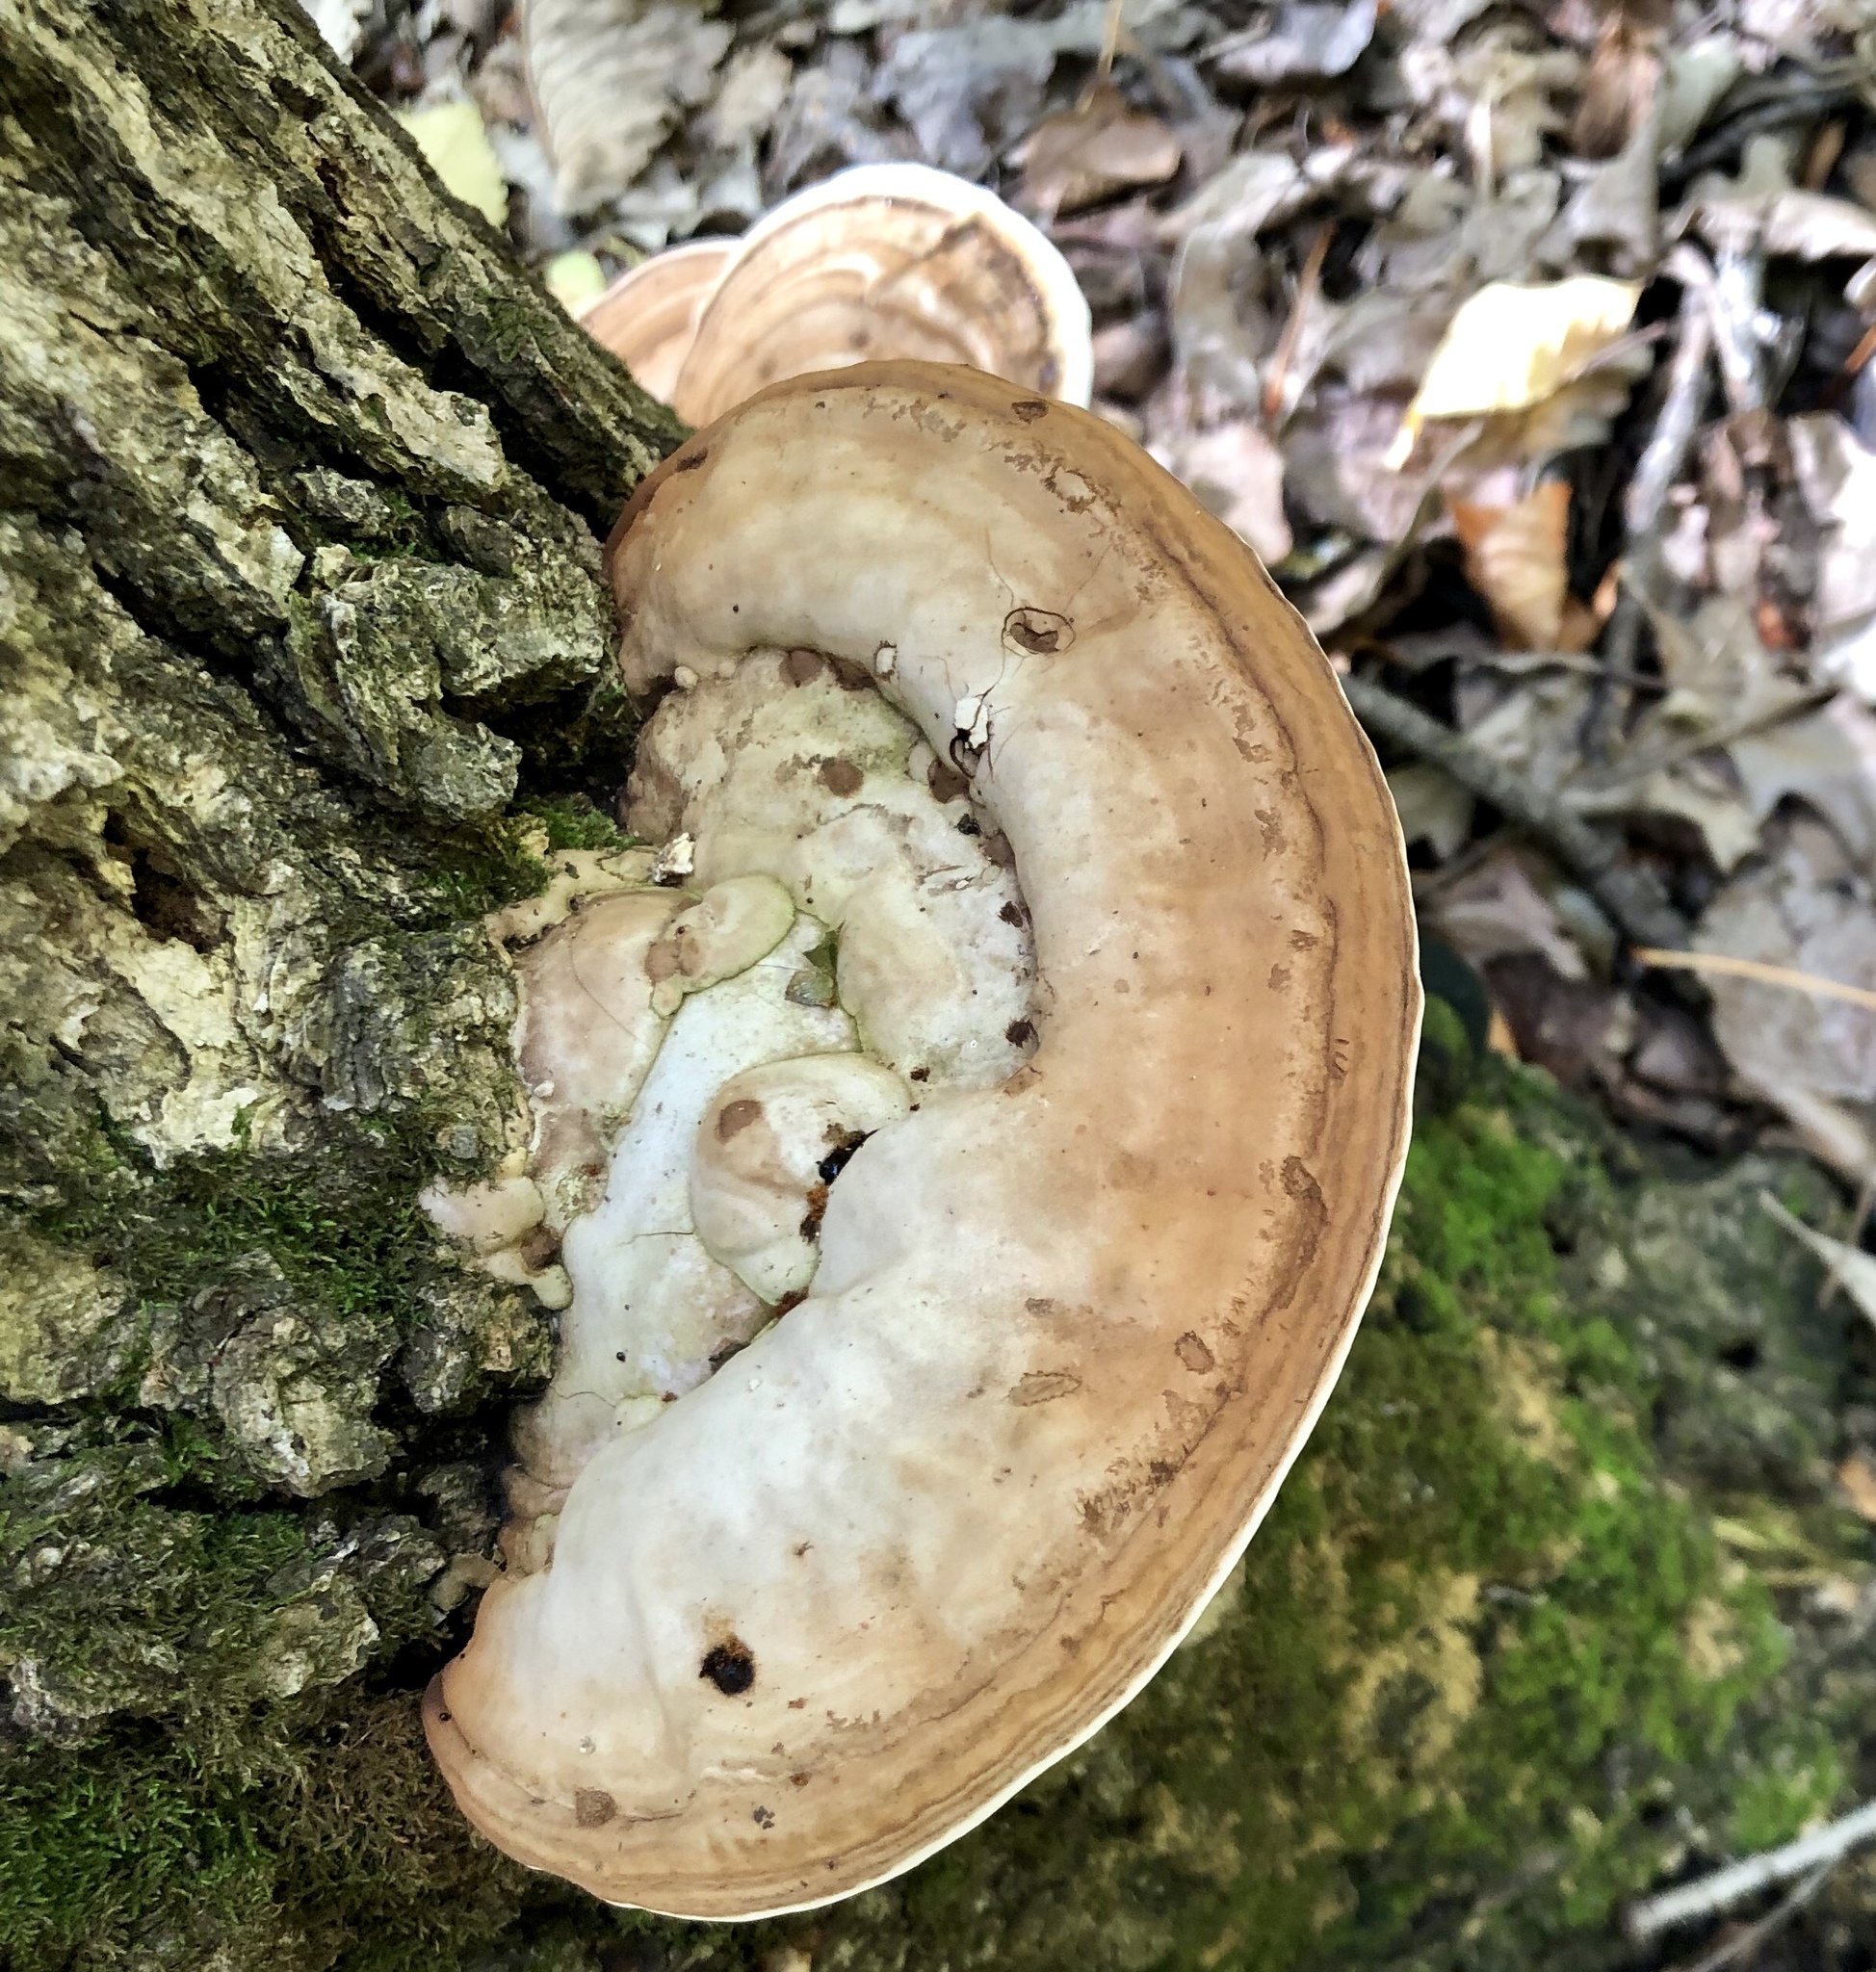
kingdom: Fungi
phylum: Basidiomycota
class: Agaricomycetes
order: Polyporales
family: Polyporaceae
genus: Ganoderma
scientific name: Ganoderma applanatum
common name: Artist's bracket
